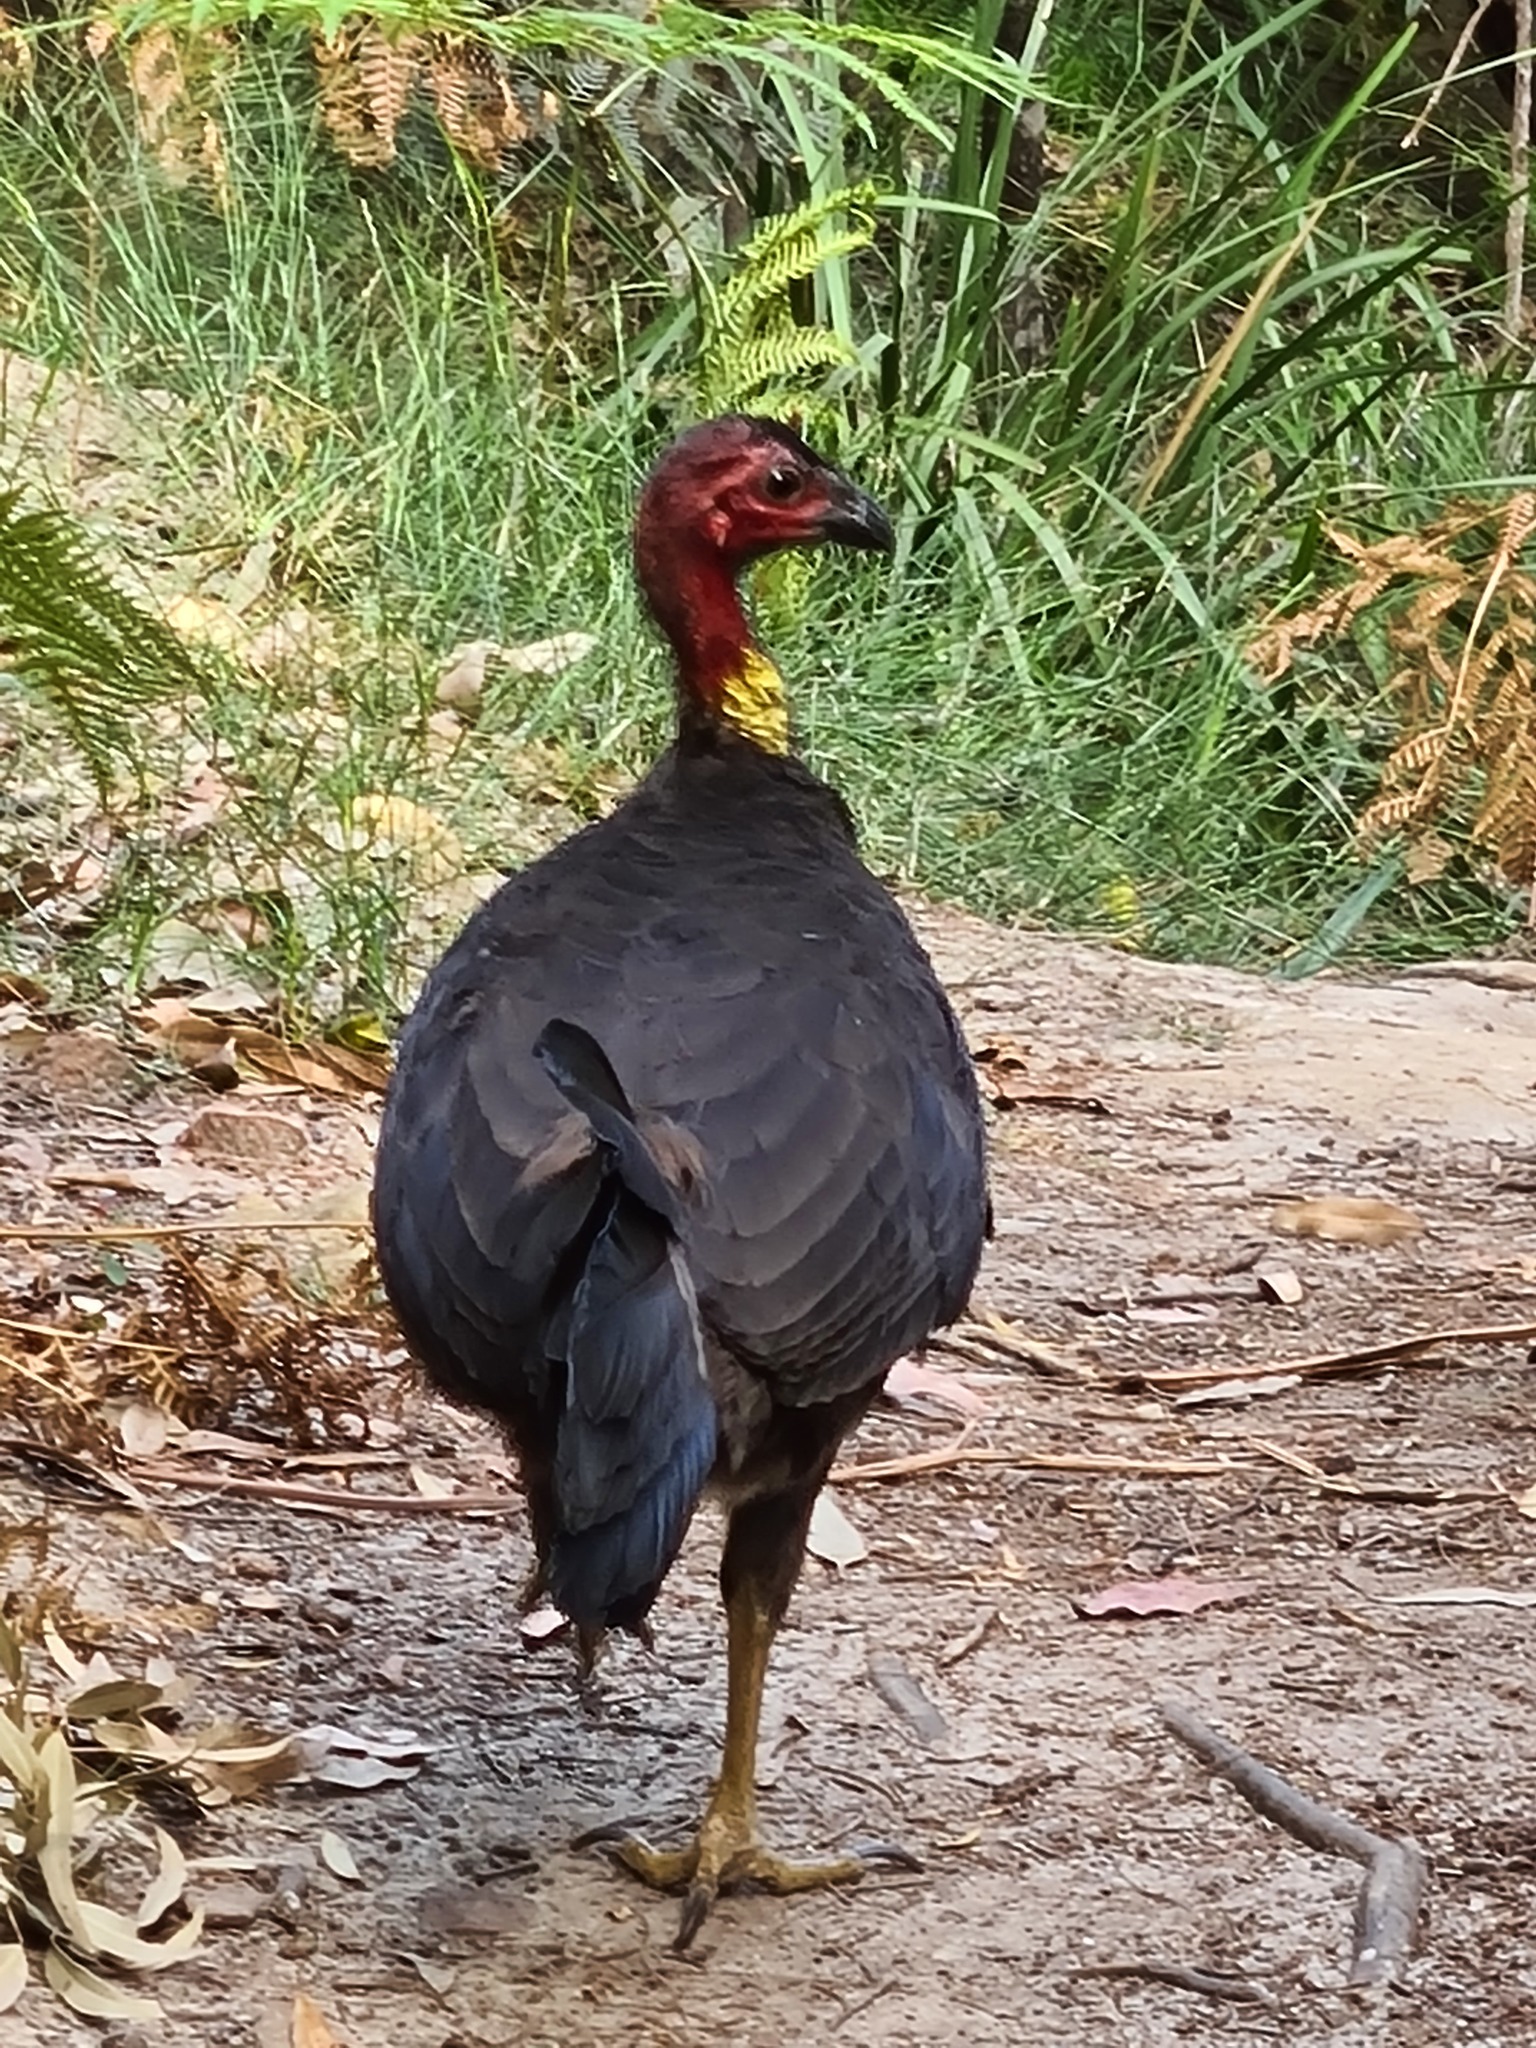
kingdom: Animalia
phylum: Chordata
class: Aves
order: Galliformes
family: Megapodiidae
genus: Alectura
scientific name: Alectura lathami
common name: Australian brushturkey
